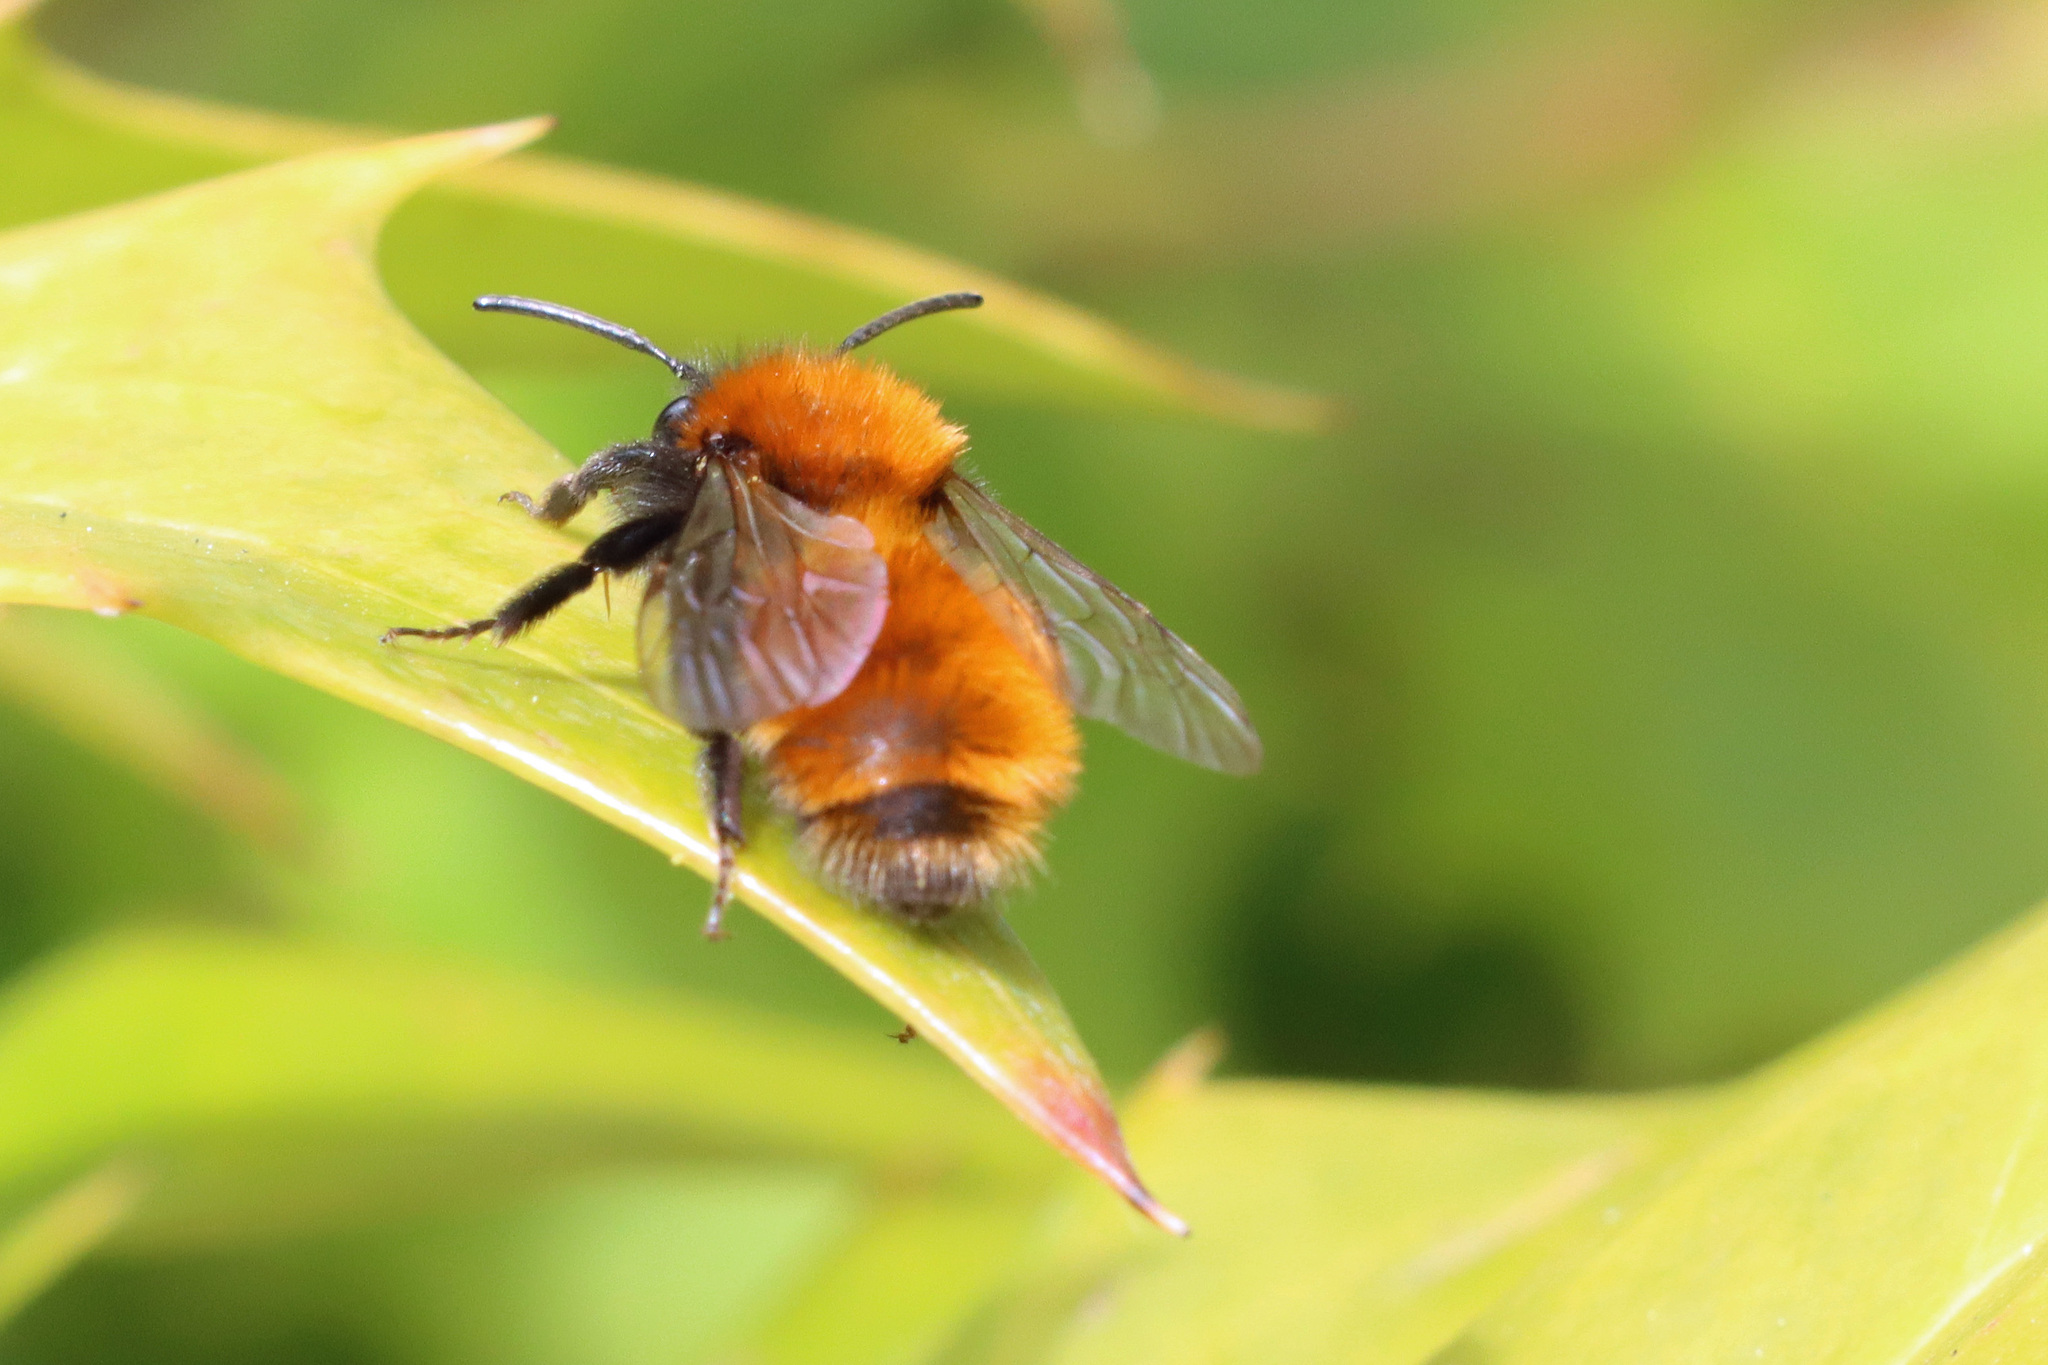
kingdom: Animalia
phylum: Arthropoda
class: Insecta
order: Hymenoptera
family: Andrenidae
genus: Andrena
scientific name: Andrena fulva
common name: Tawny mining bee
